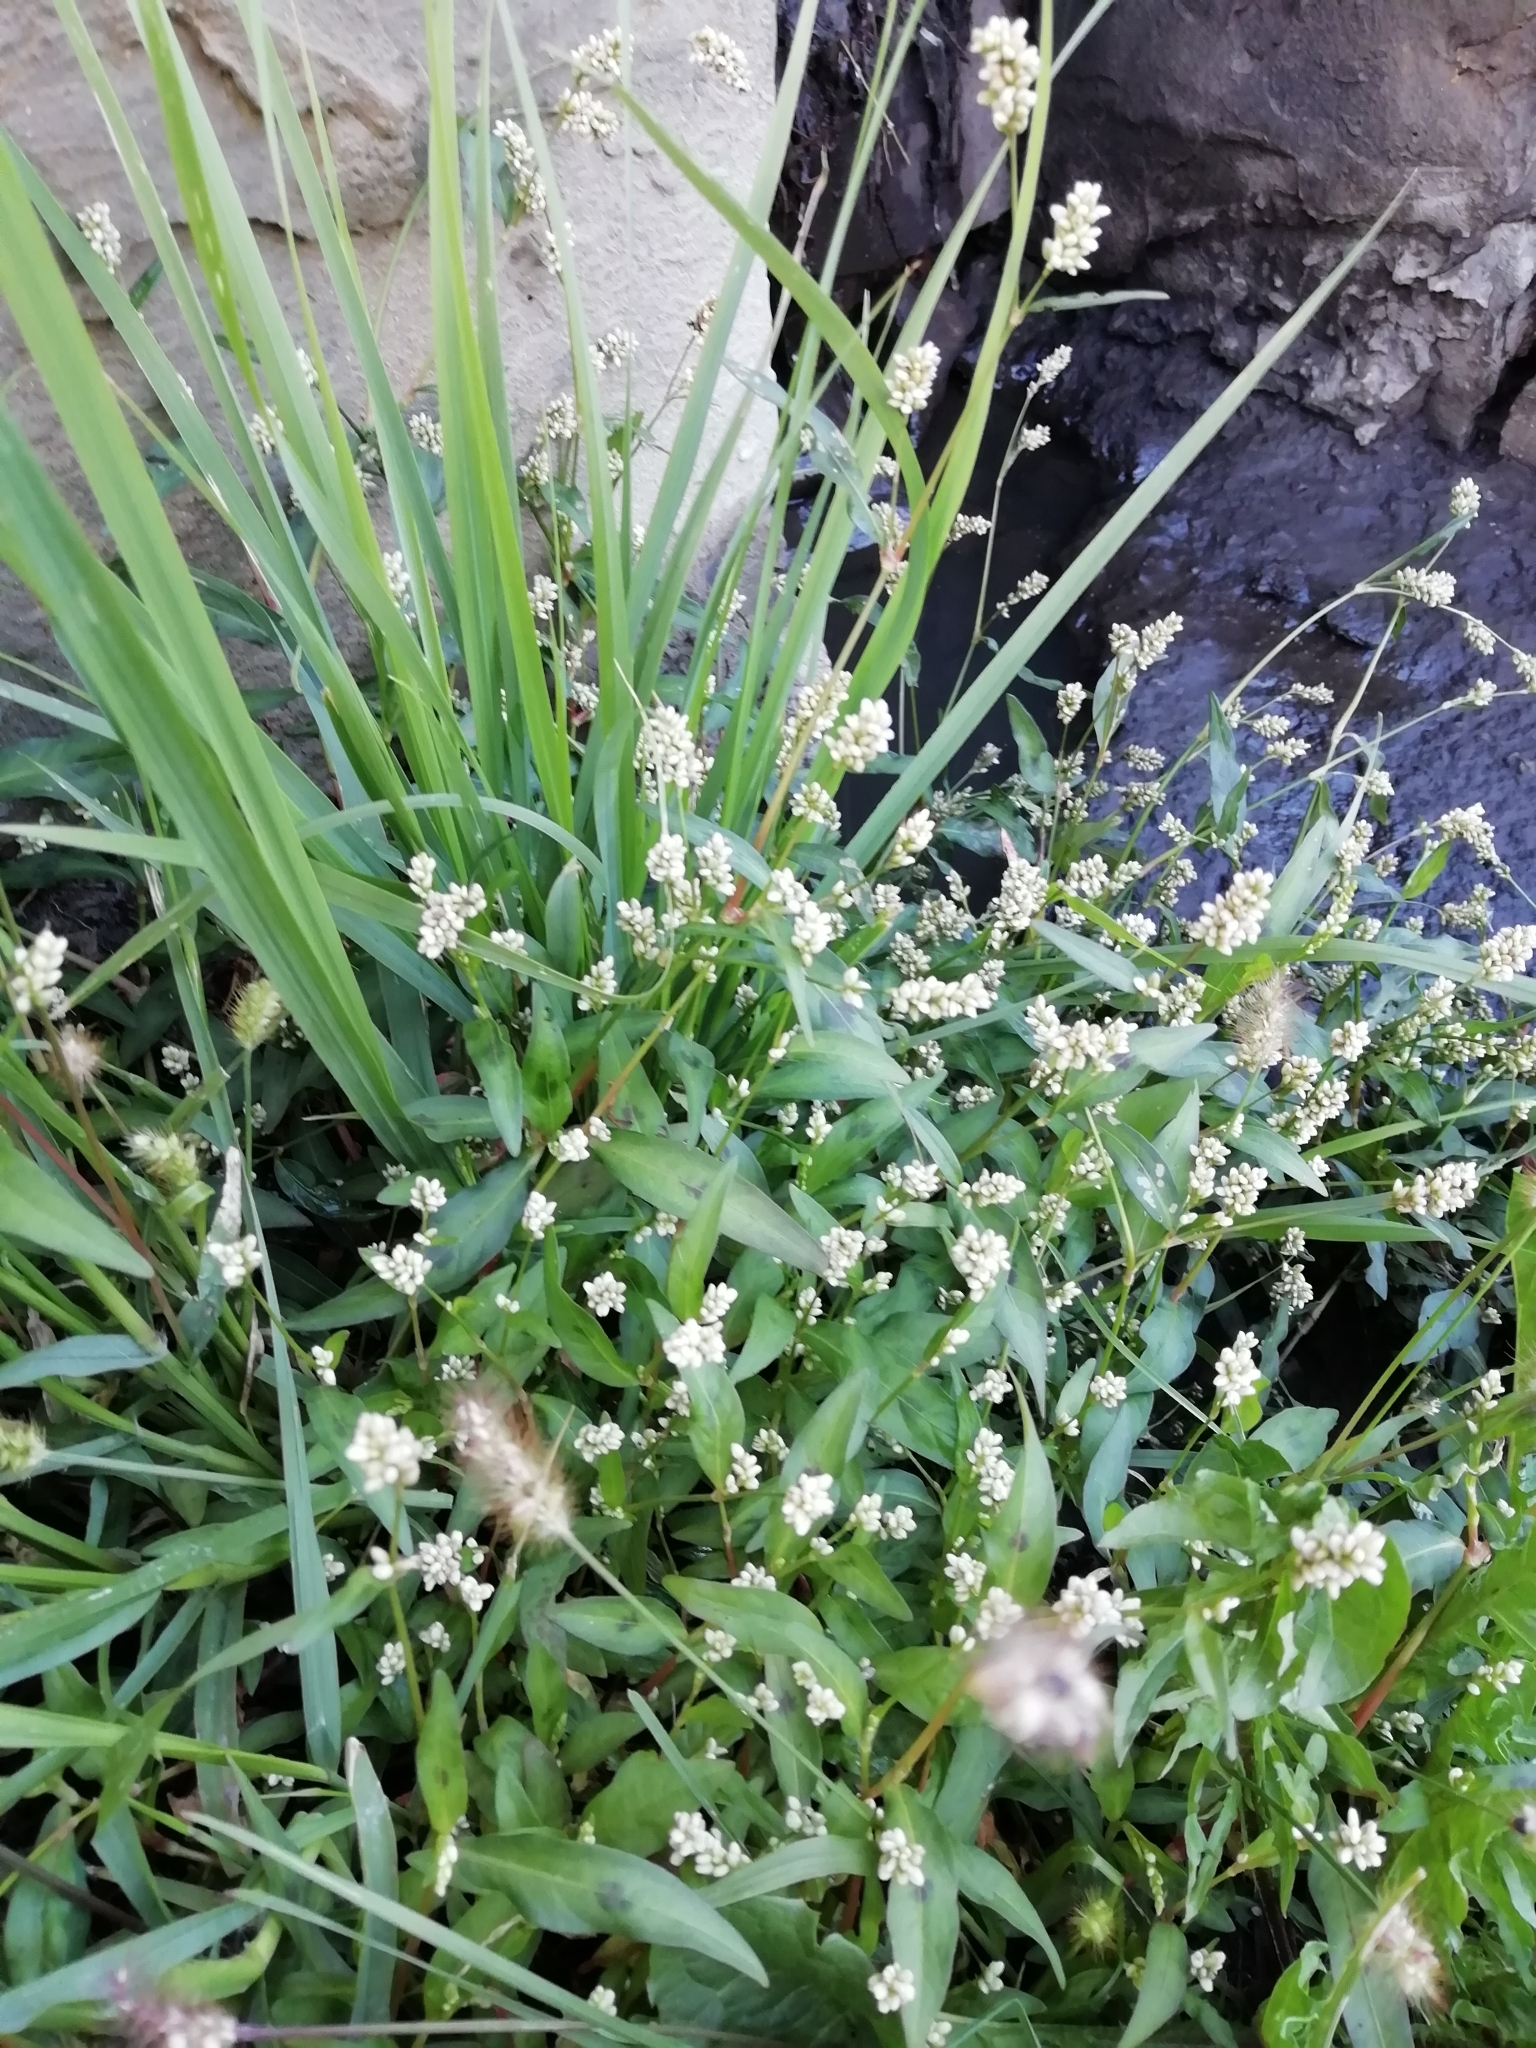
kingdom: Plantae
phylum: Tracheophyta
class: Magnoliopsida
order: Caryophyllales
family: Polygonaceae
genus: Persicaria
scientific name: Persicaria maculosa
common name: Redshank
